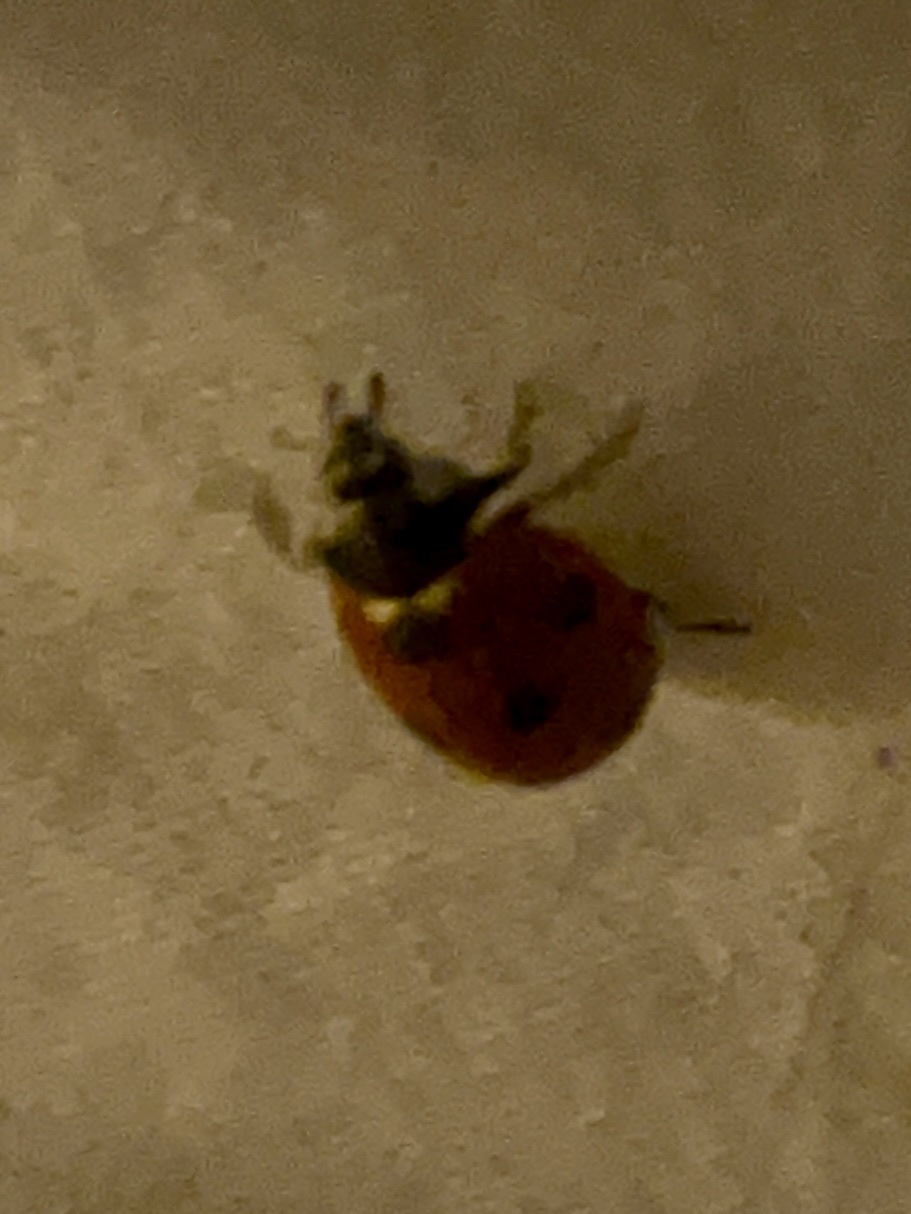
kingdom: Animalia
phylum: Arthropoda
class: Insecta
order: Coleoptera
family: Coccinellidae
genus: Coccinella
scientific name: Coccinella septempunctata
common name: Sevenspotted lady beetle
